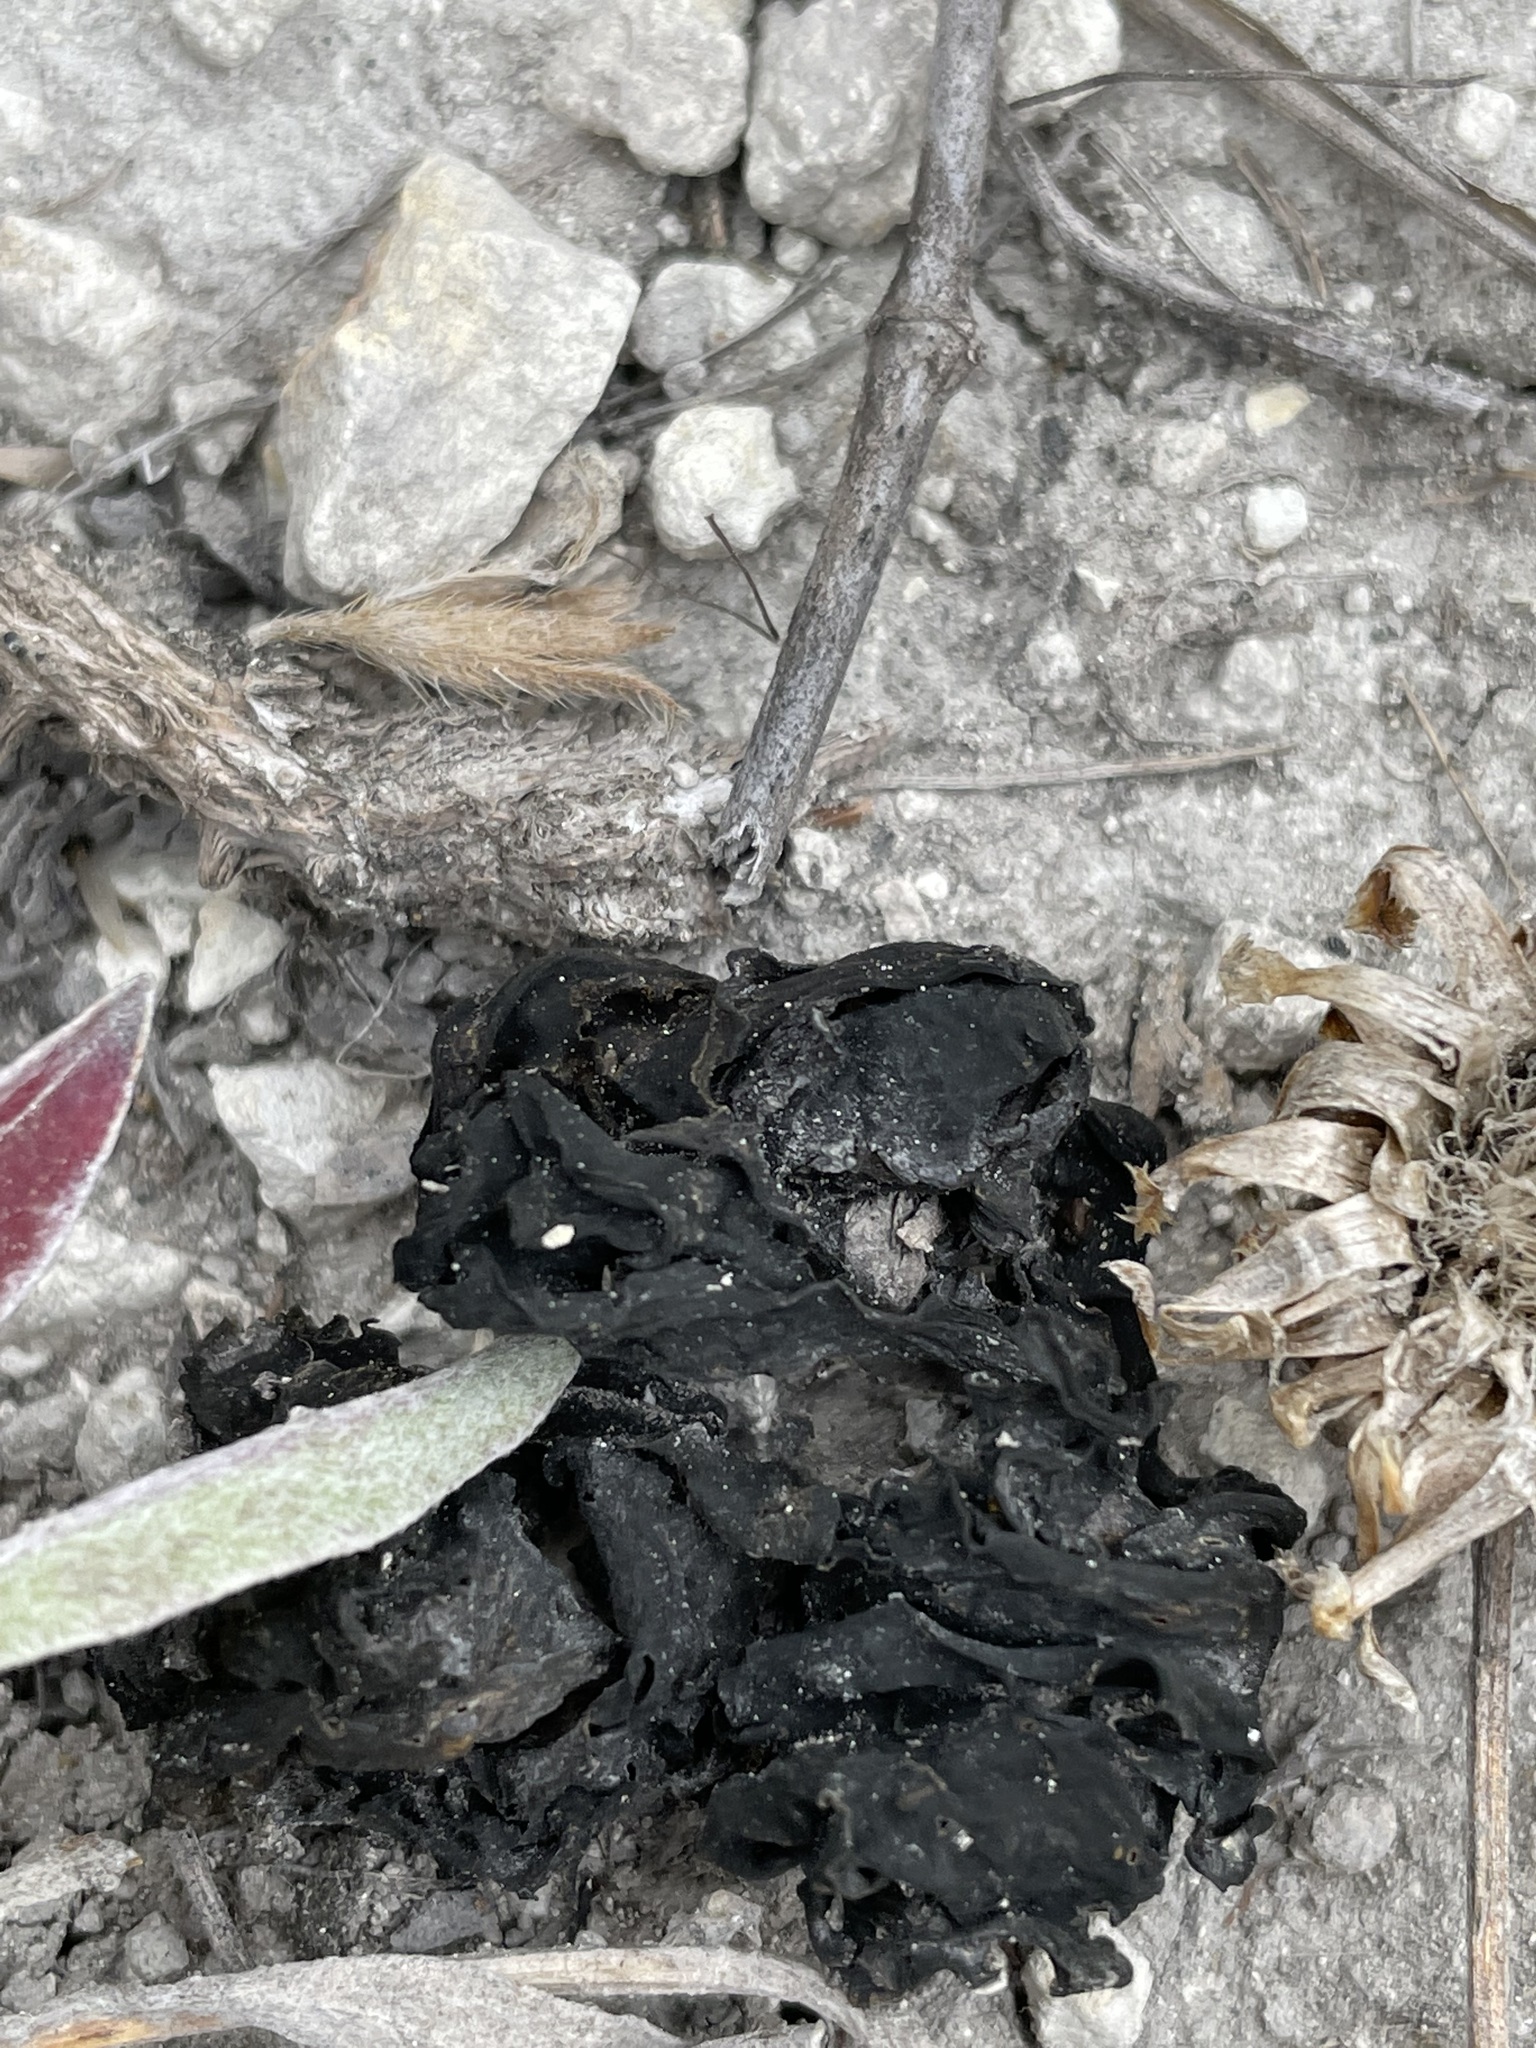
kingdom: Bacteria
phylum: Cyanobacteria
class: Cyanobacteriia
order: Cyanobacteriales
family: Nostocaceae
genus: Nostoc
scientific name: Nostoc commune
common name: Star jelly
